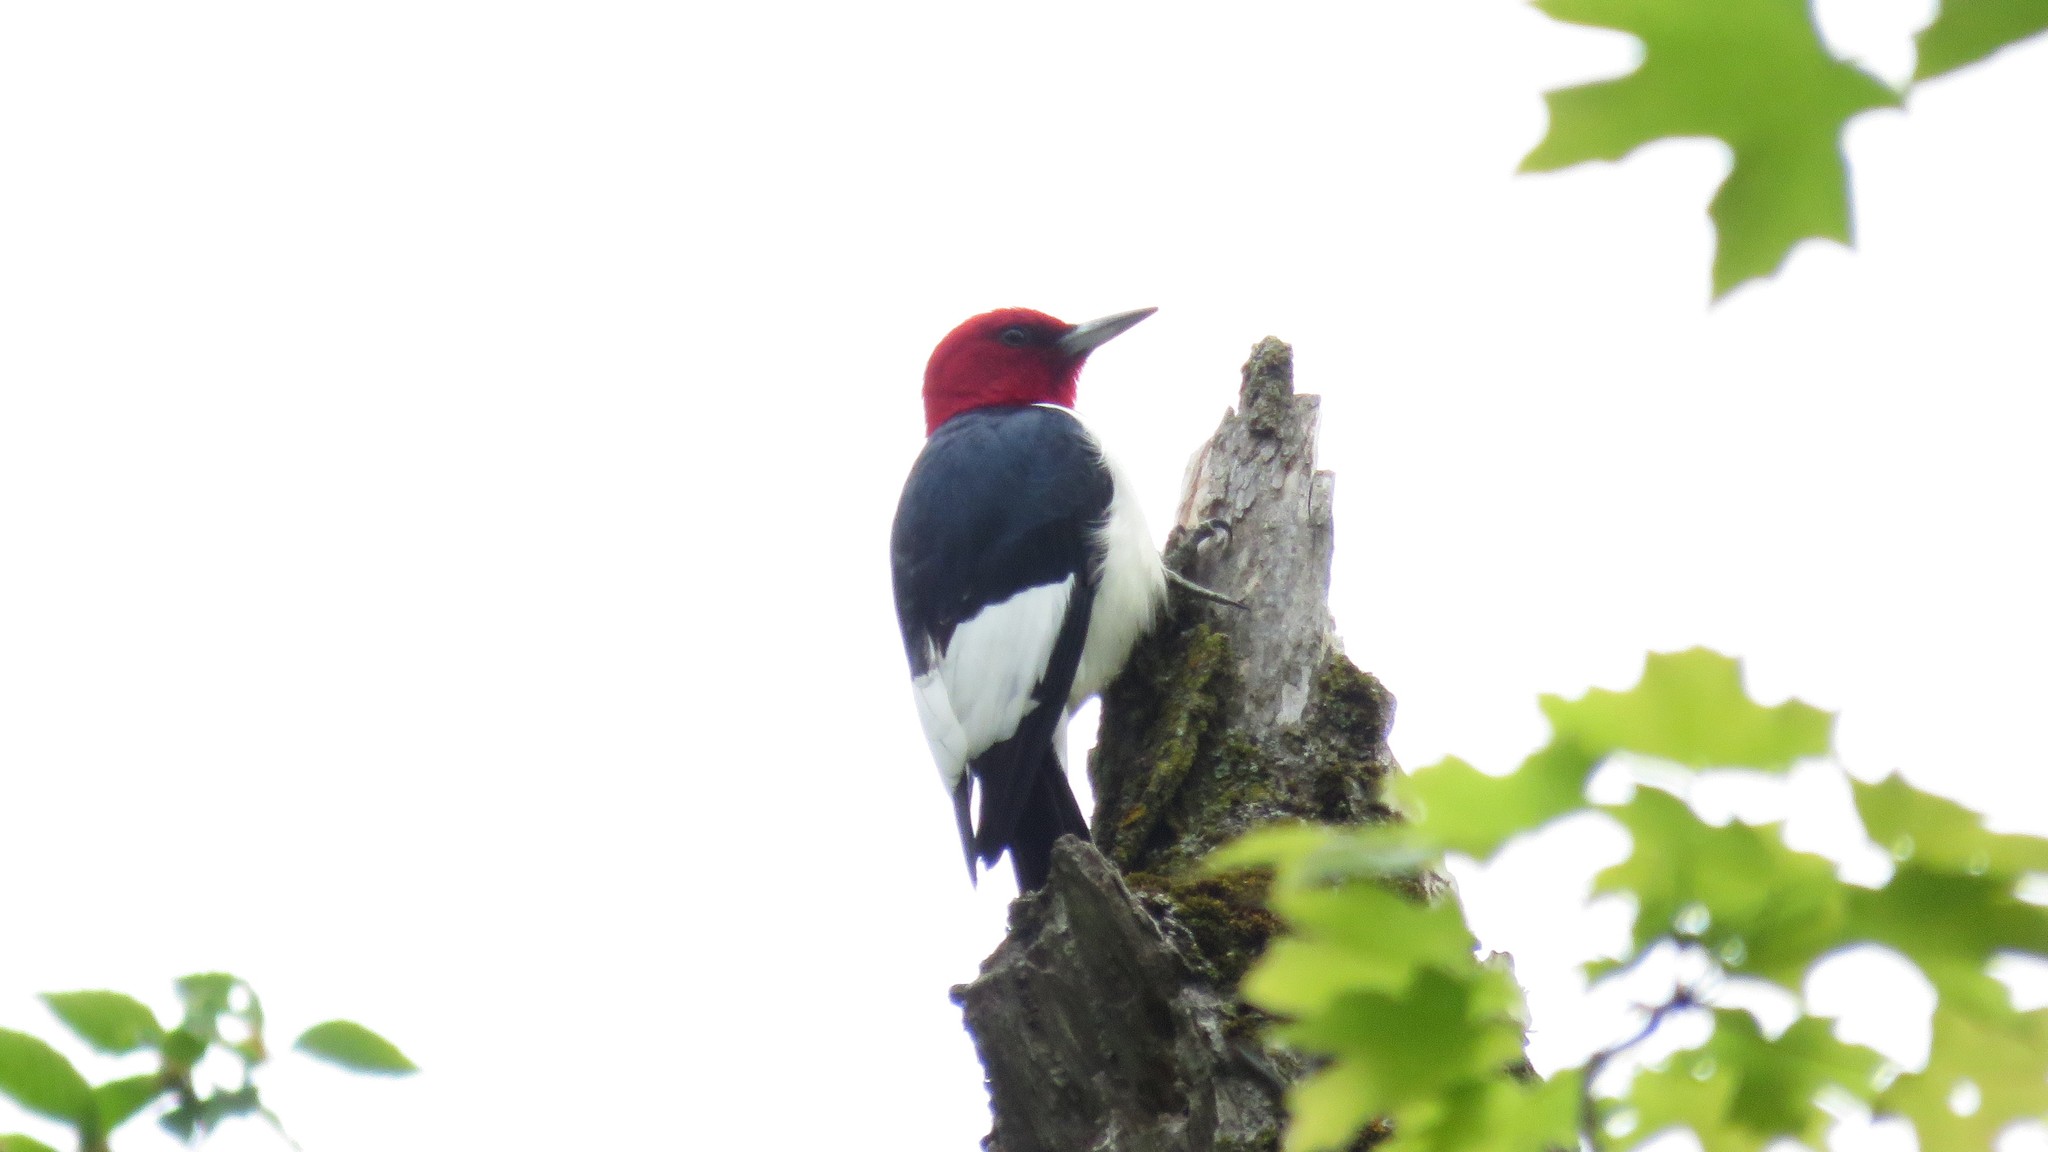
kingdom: Animalia
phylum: Chordata
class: Aves
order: Piciformes
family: Picidae
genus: Melanerpes
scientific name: Melanerpes erythrocephalus
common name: Red-headed woodpecker
